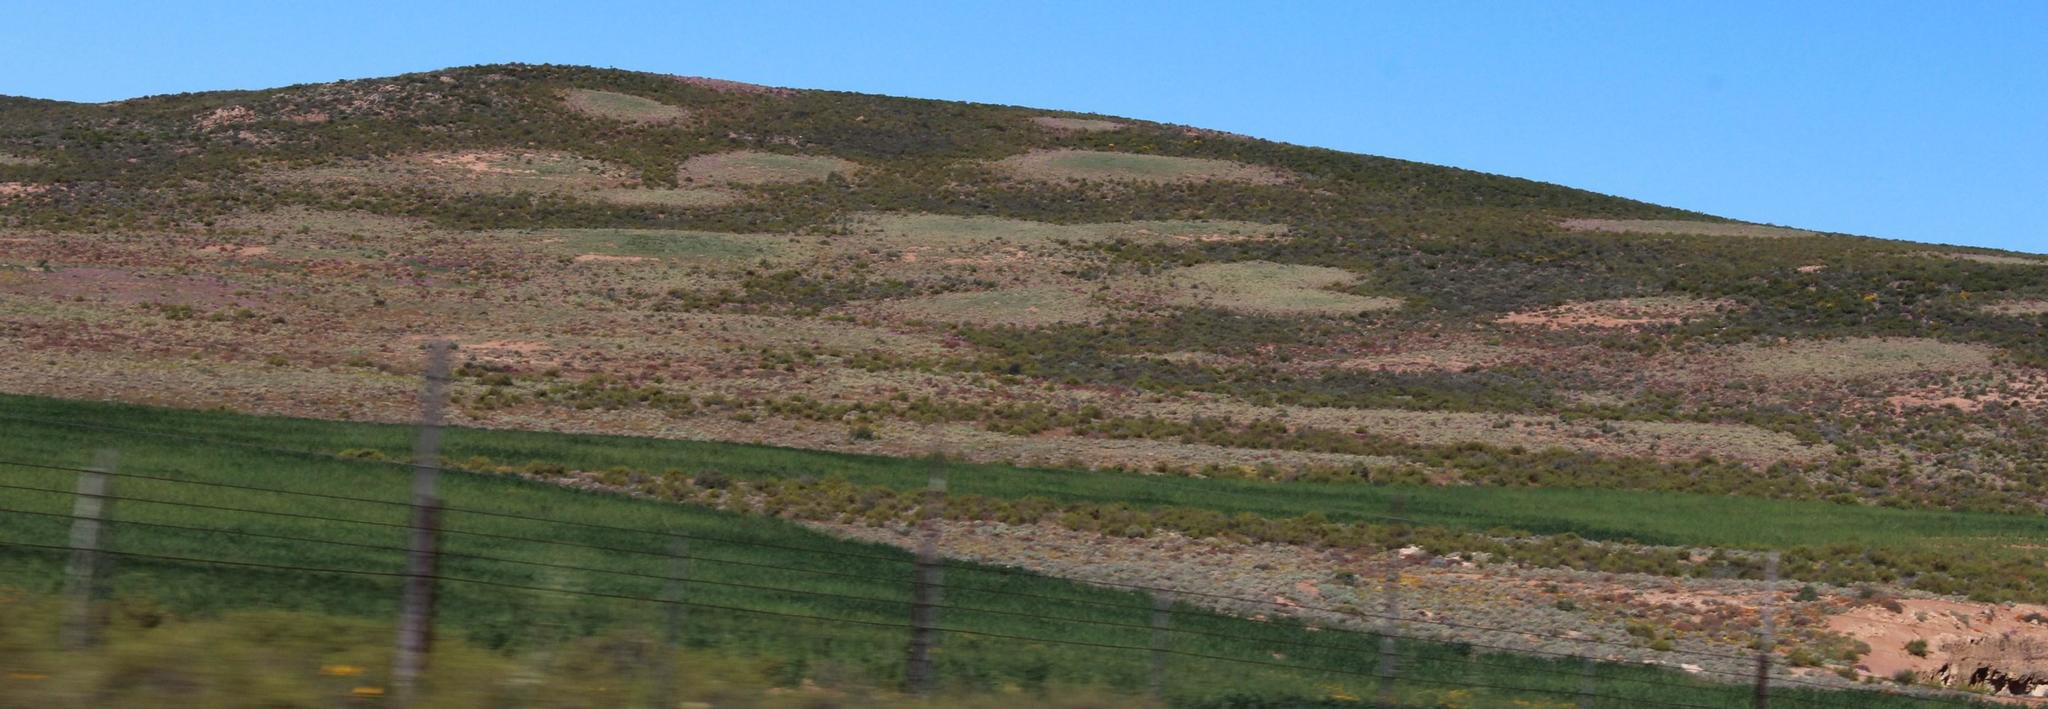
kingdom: Animalia
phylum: Arthropoda
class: Insecta
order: Blattodea
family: Hodotermitidae
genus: Microhodotermes
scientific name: Microhodotermes viator
